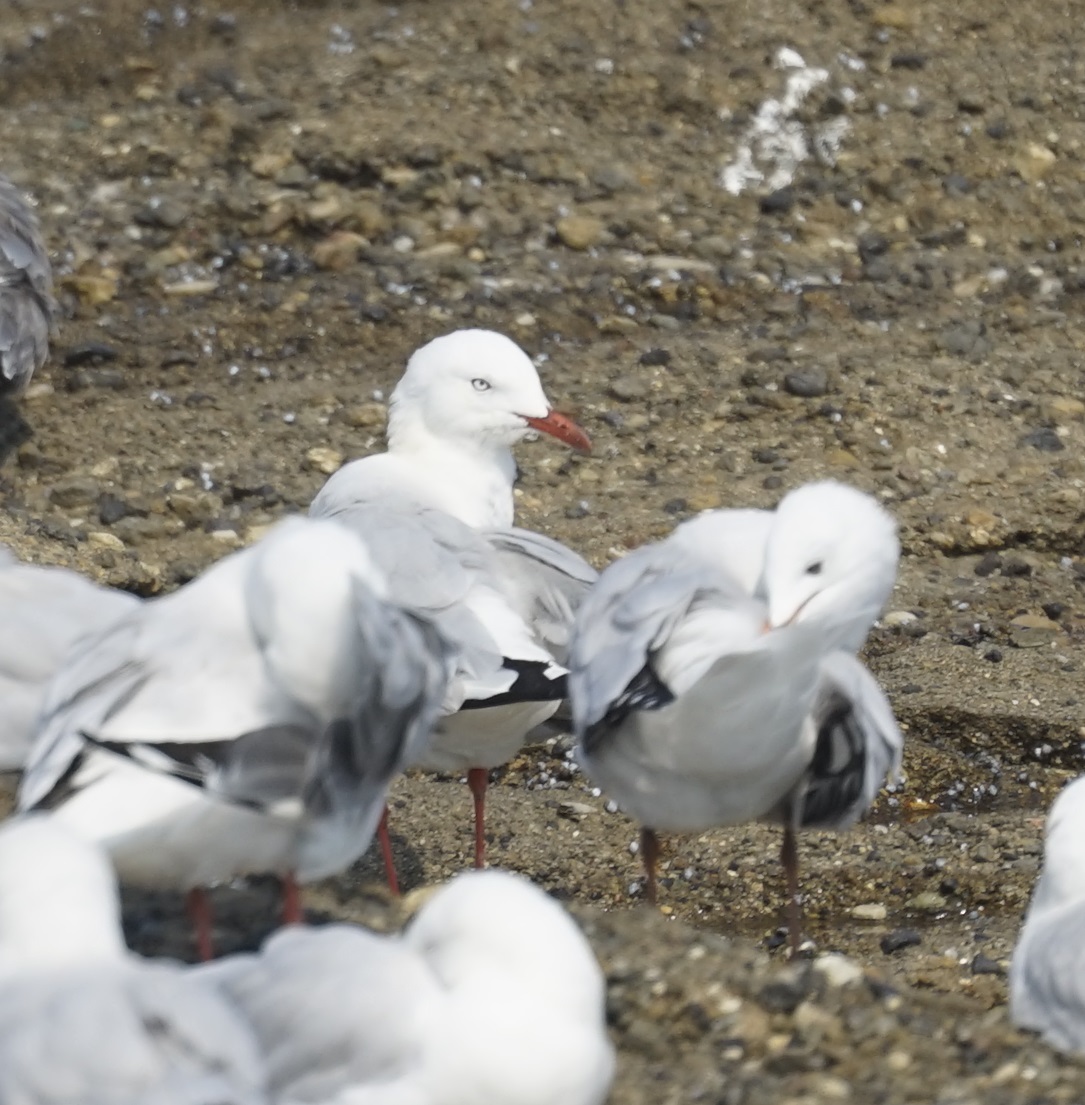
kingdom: Animalia
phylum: Chordata
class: Aves
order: Charadriiformes
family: Laridae
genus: Chroicocephalus
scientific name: Chroicocephalus novaehollandiae
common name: Silver gull
